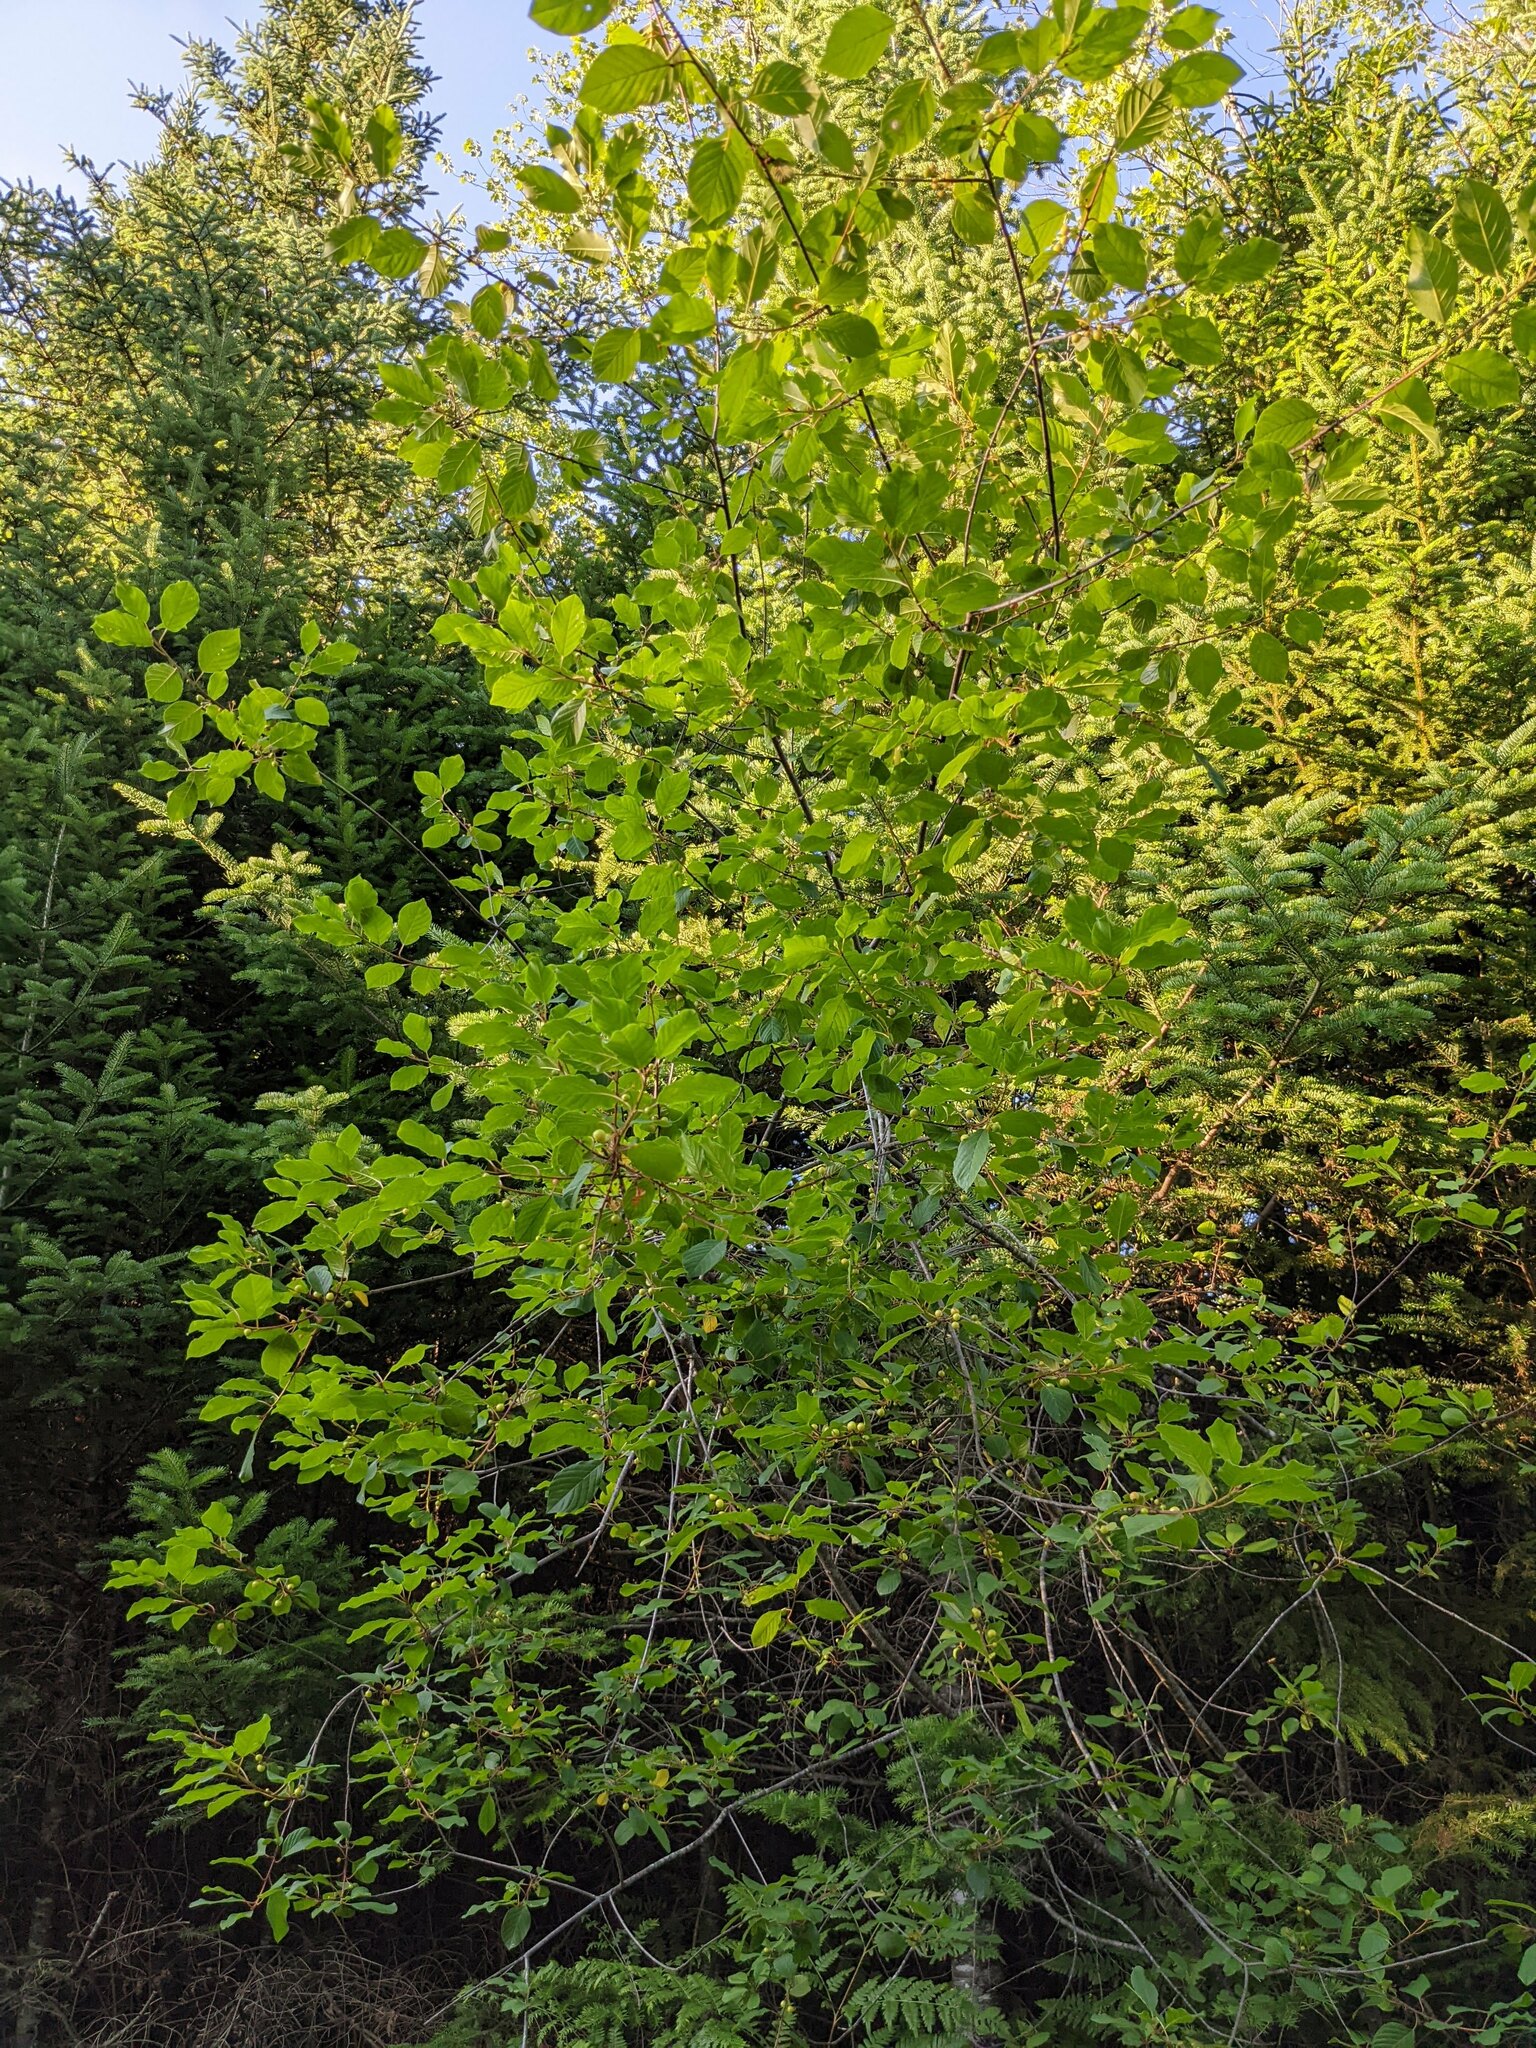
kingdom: Plantae
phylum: Tracheophyta
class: Magnoliopsida
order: Rosales
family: Rhamnaceae
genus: Frangula
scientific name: Frangula alnus
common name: Alder buckthorn
